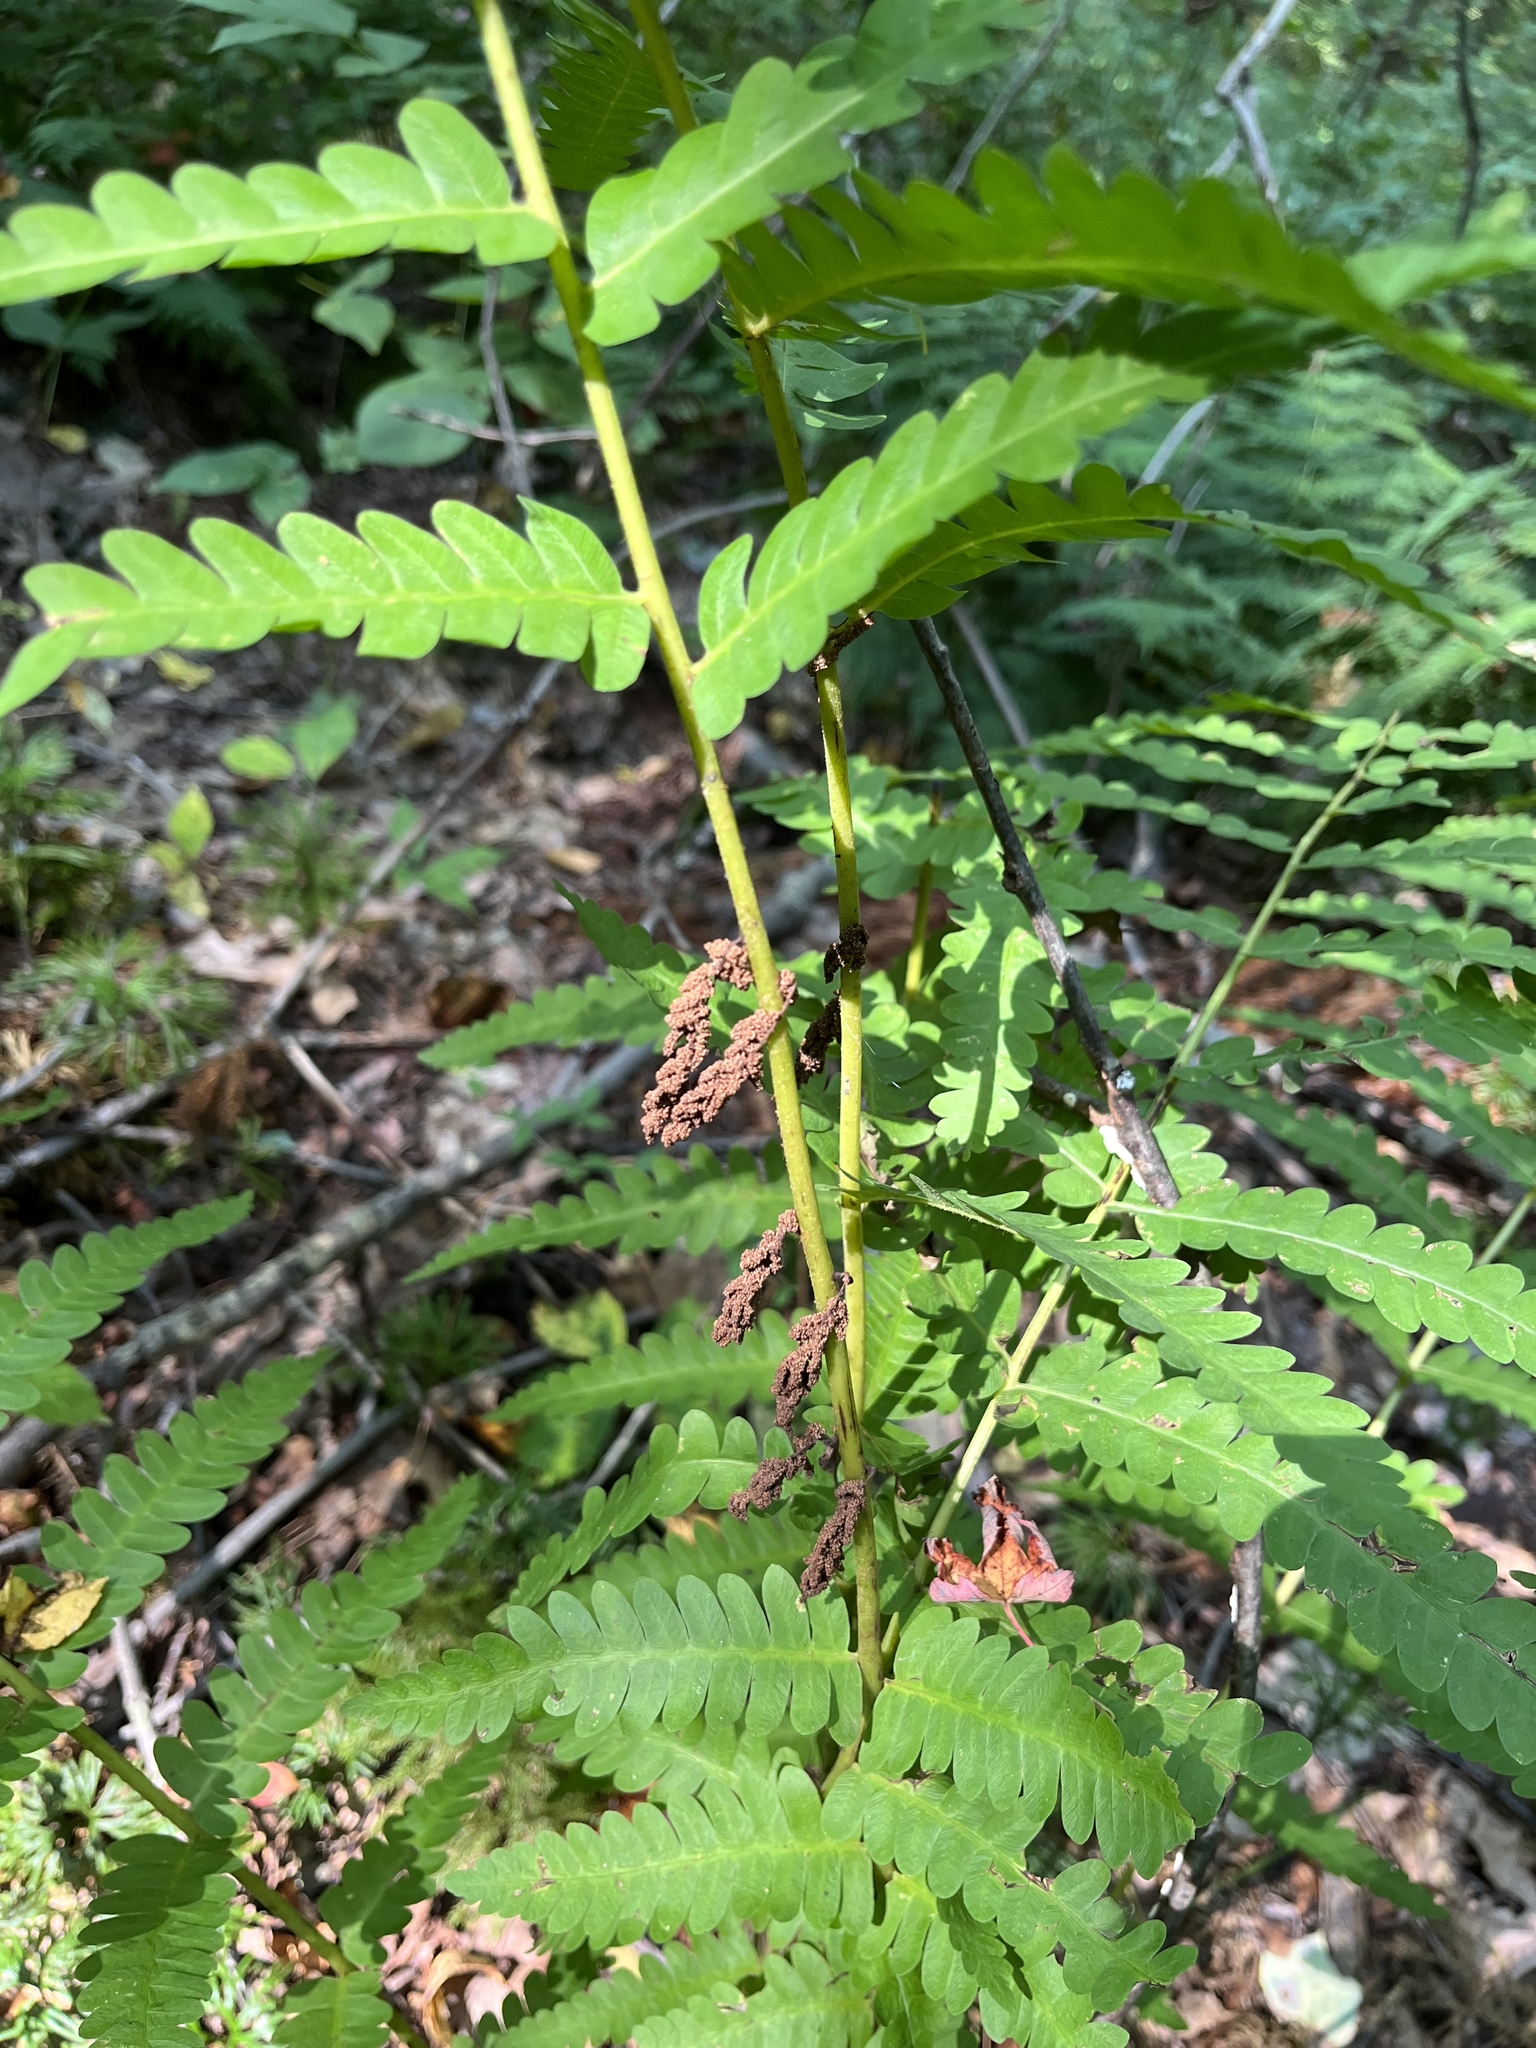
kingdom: Plantae
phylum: Tracheophyta
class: Polypodiopsida
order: Osmundales
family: Osmundaceae
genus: Claytosmunda
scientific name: Claytosmunda claytoniana
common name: Clayton's fern
